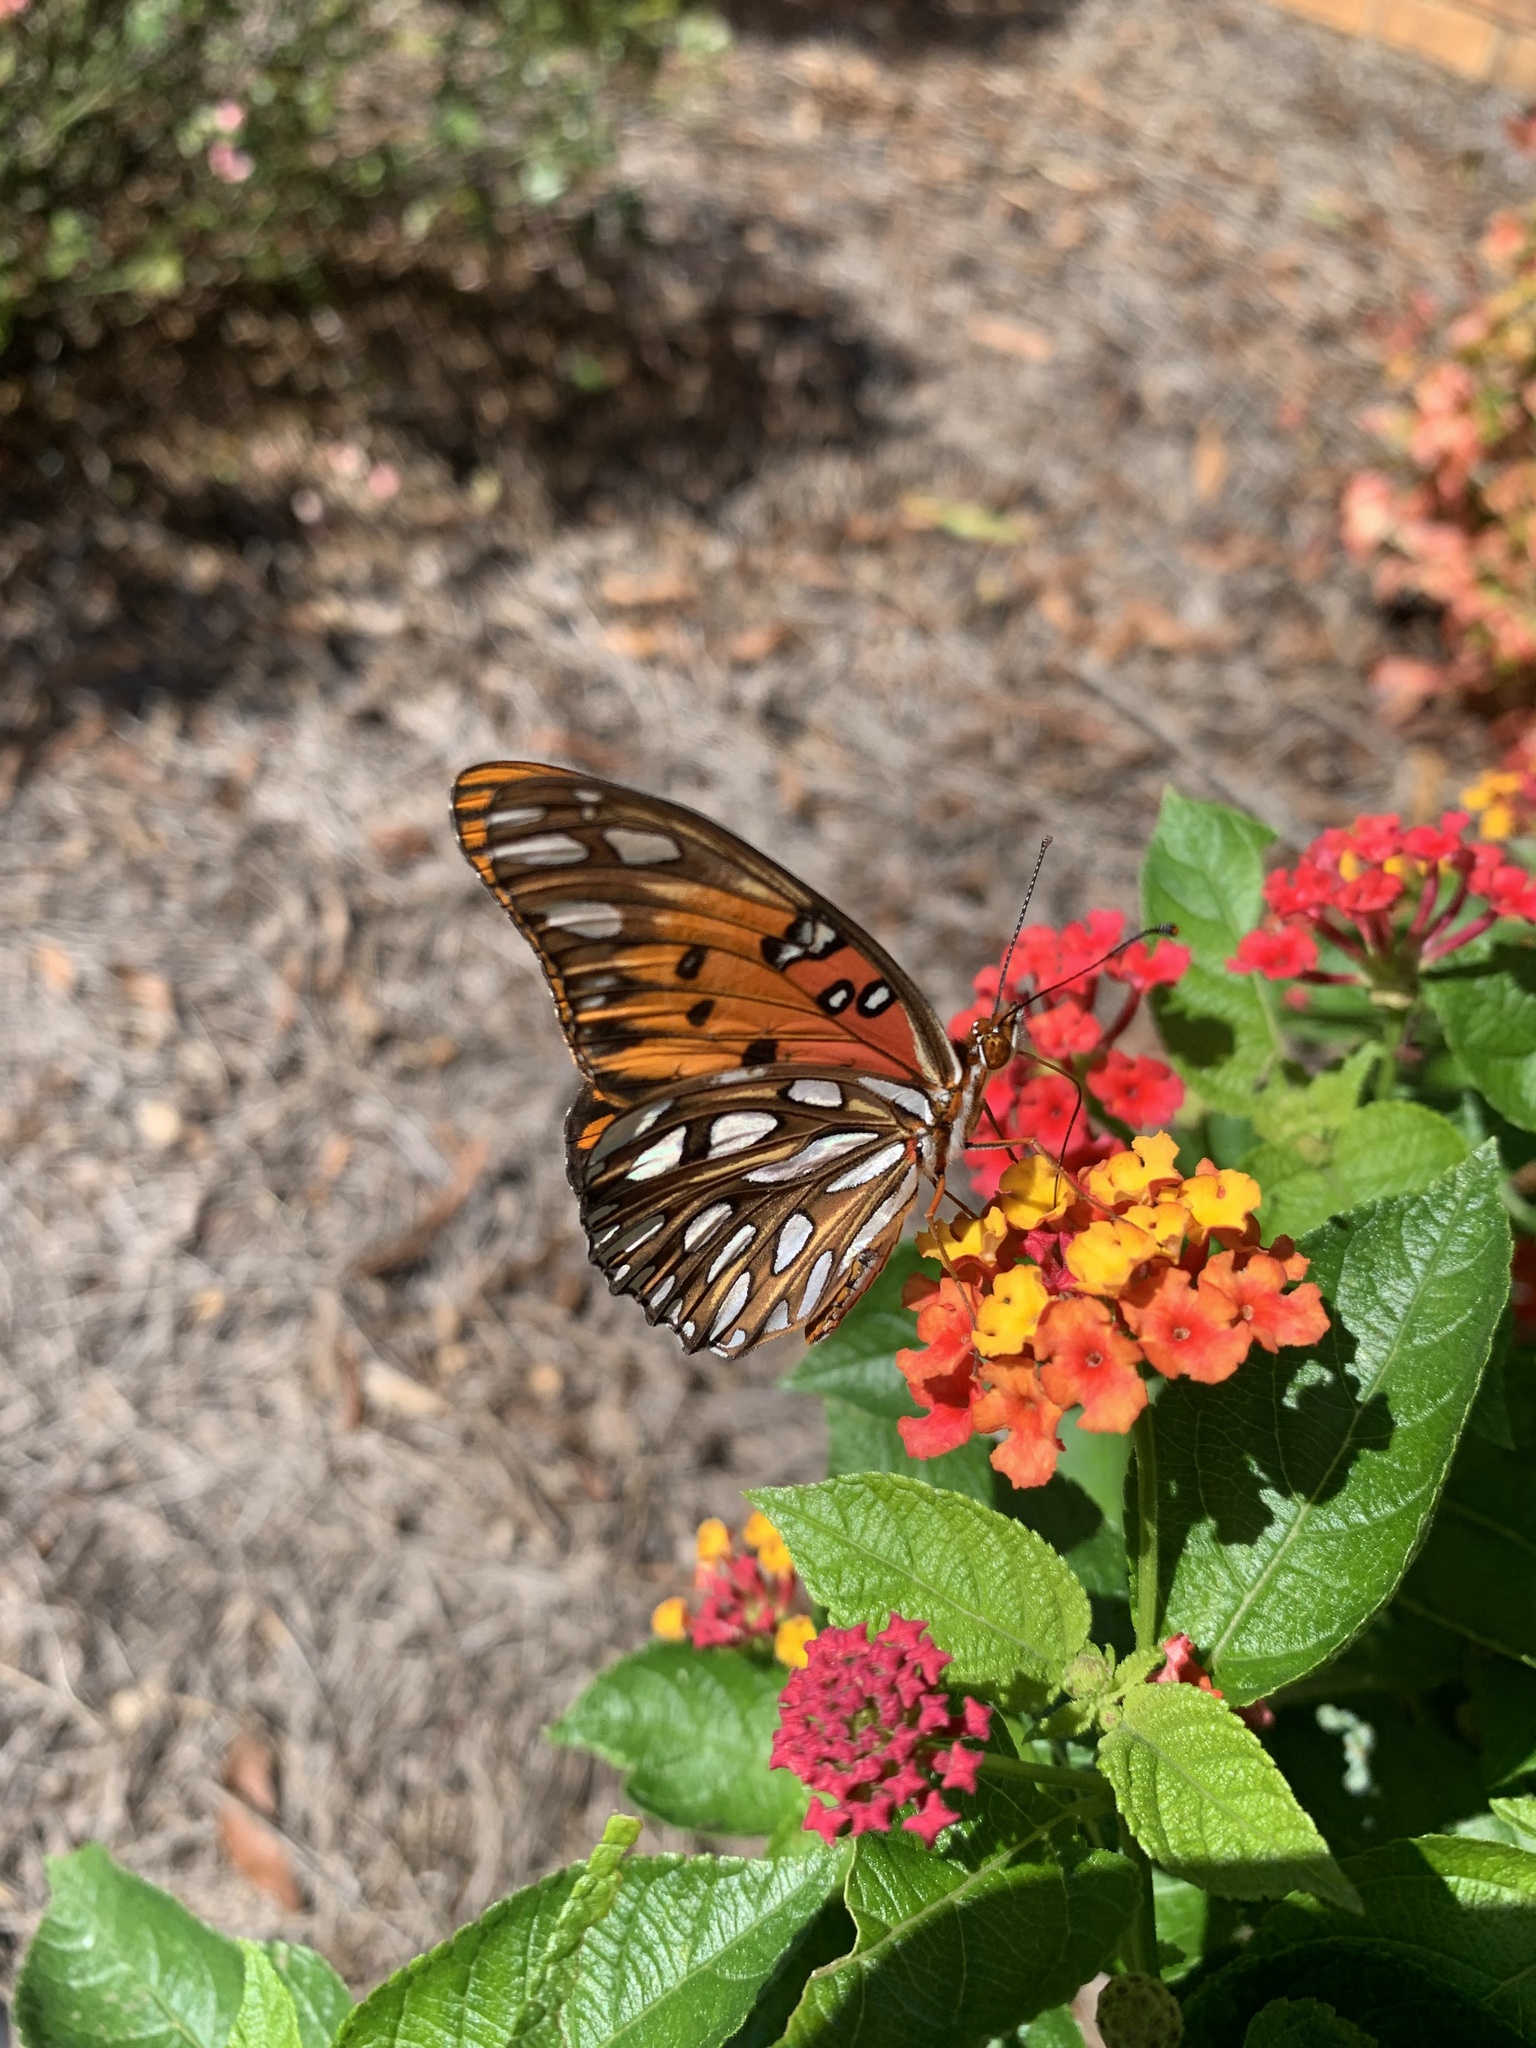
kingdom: Animalia
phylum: Arthropoda
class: Insecta
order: Lepidoptera
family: Nymphalidae
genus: Dione
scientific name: Dione vanillae
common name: Gulf fritillary
